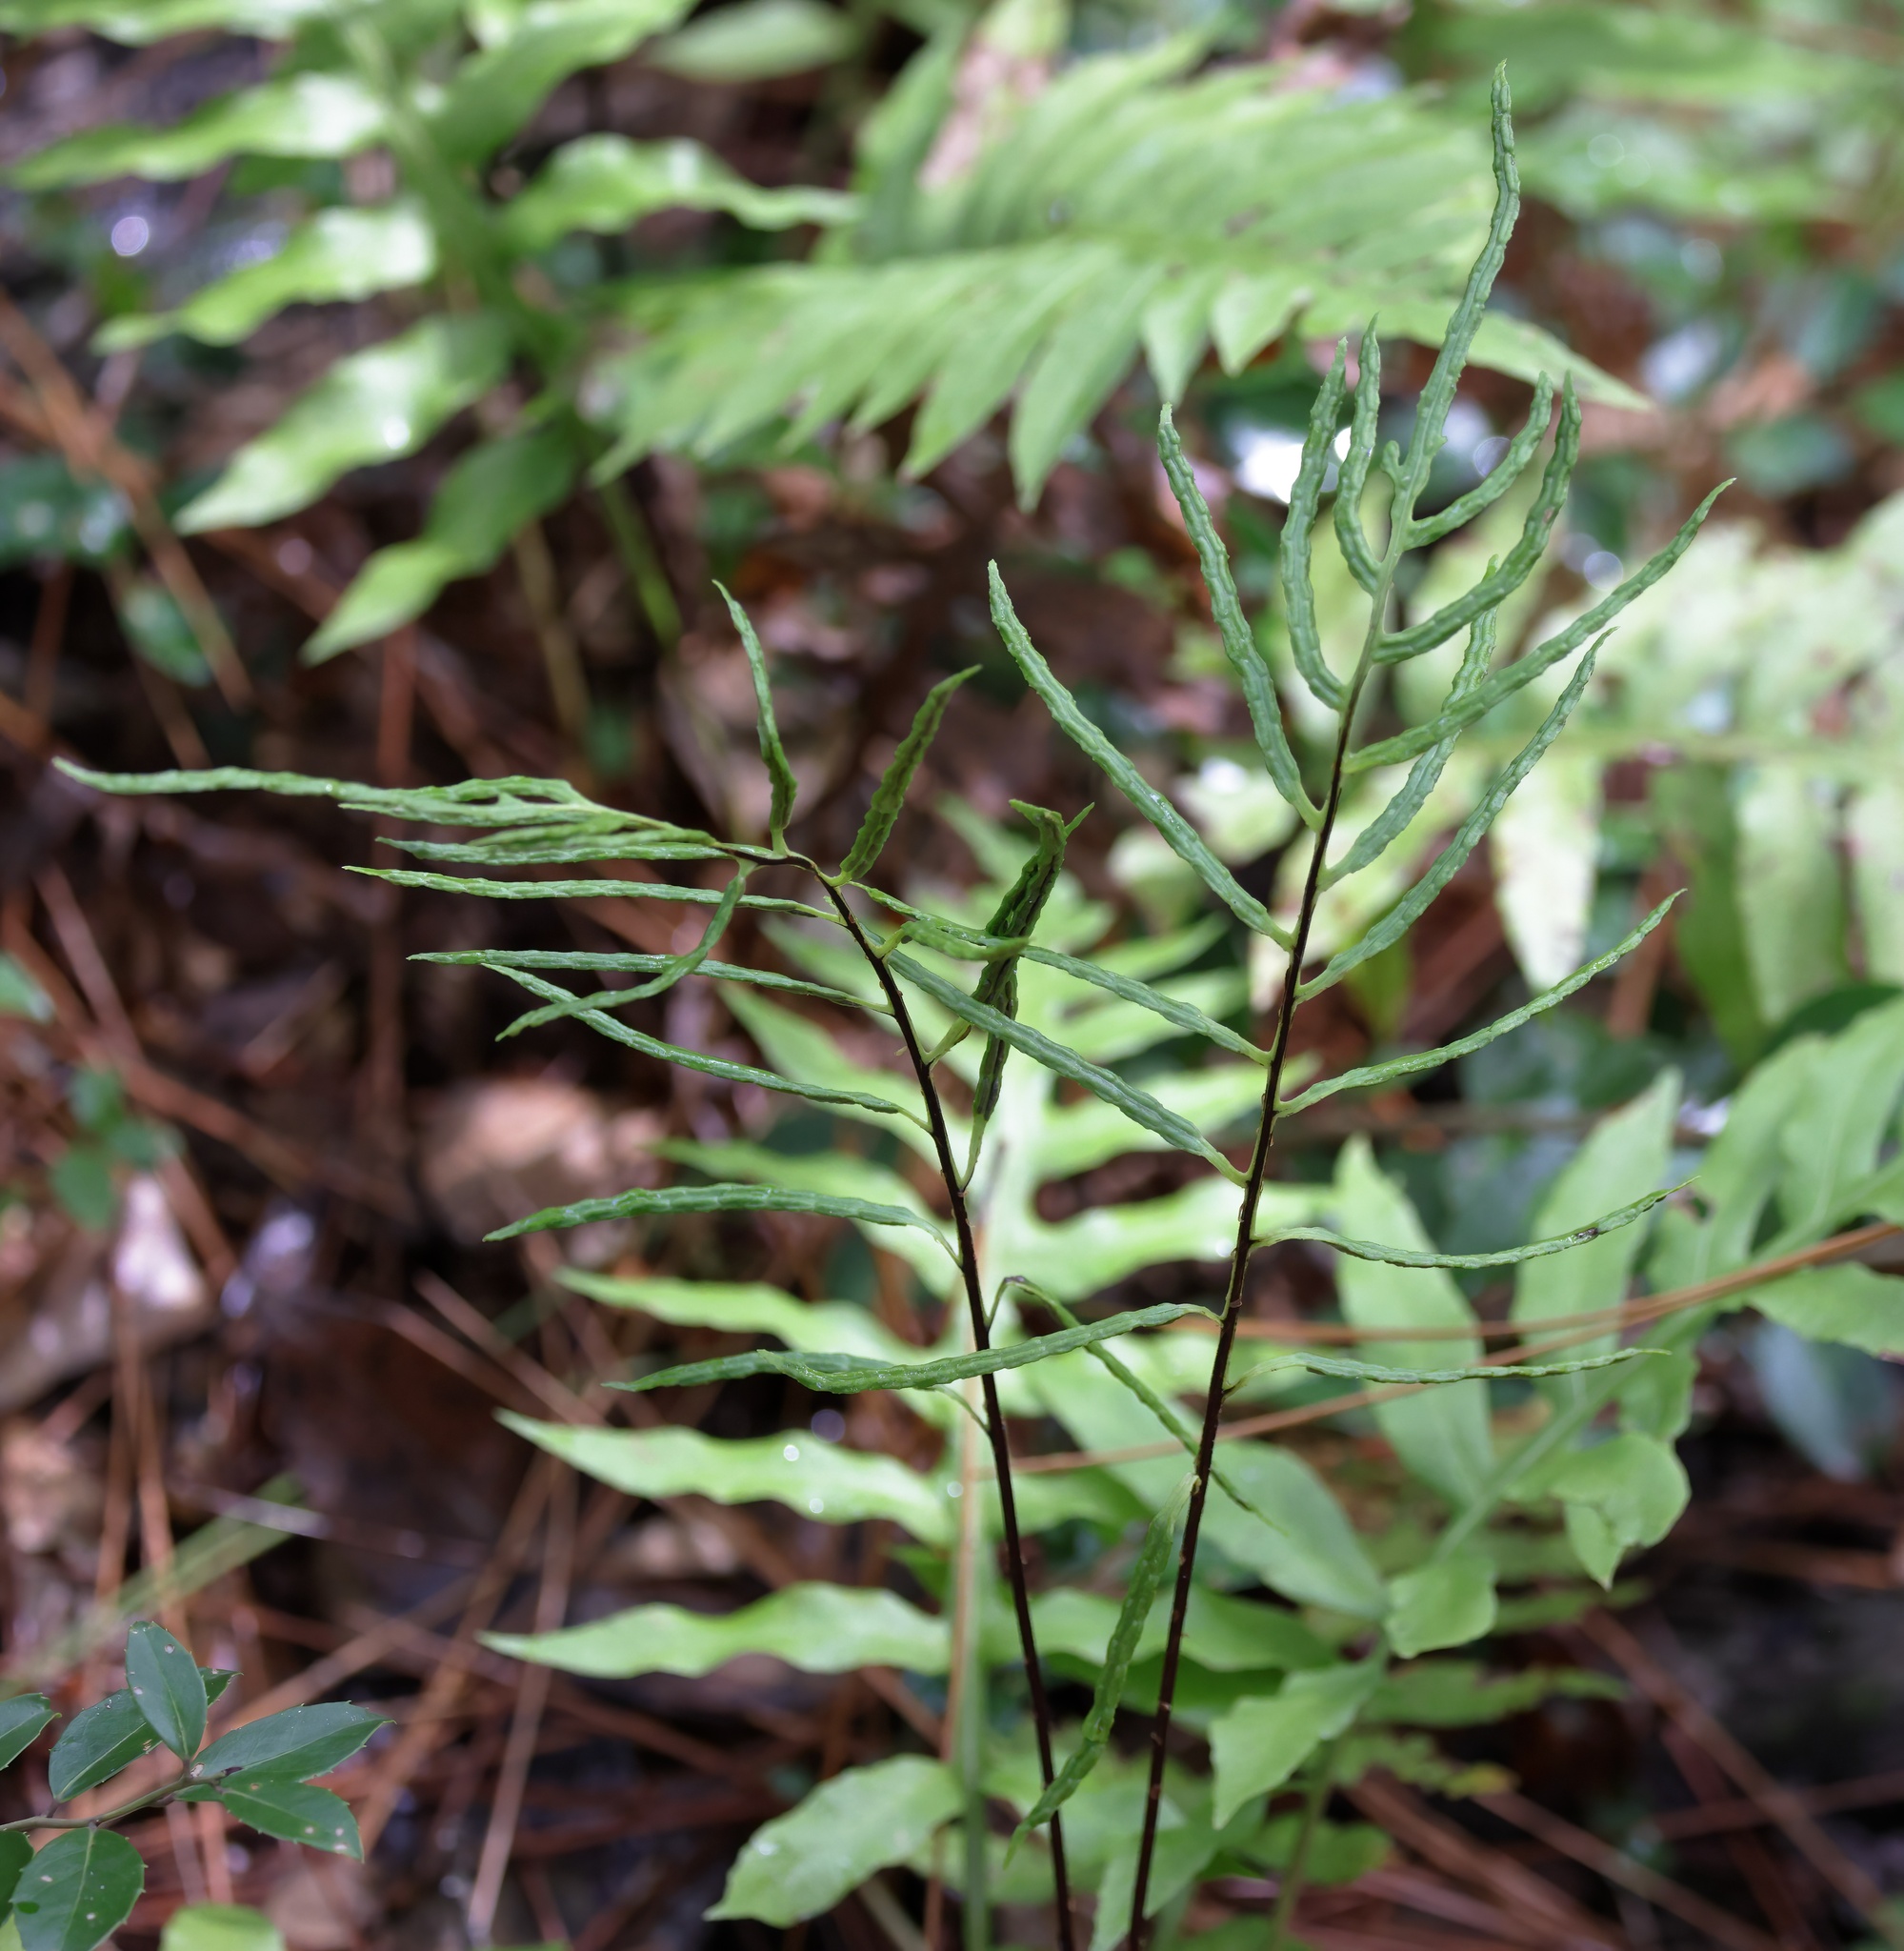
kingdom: Plantae
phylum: Tracheophyta
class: Polypodiopsida
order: Polypodiales
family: Blechnaceae
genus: Lorinseria
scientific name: Lorinseria areolata
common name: Dwarf chain fern
